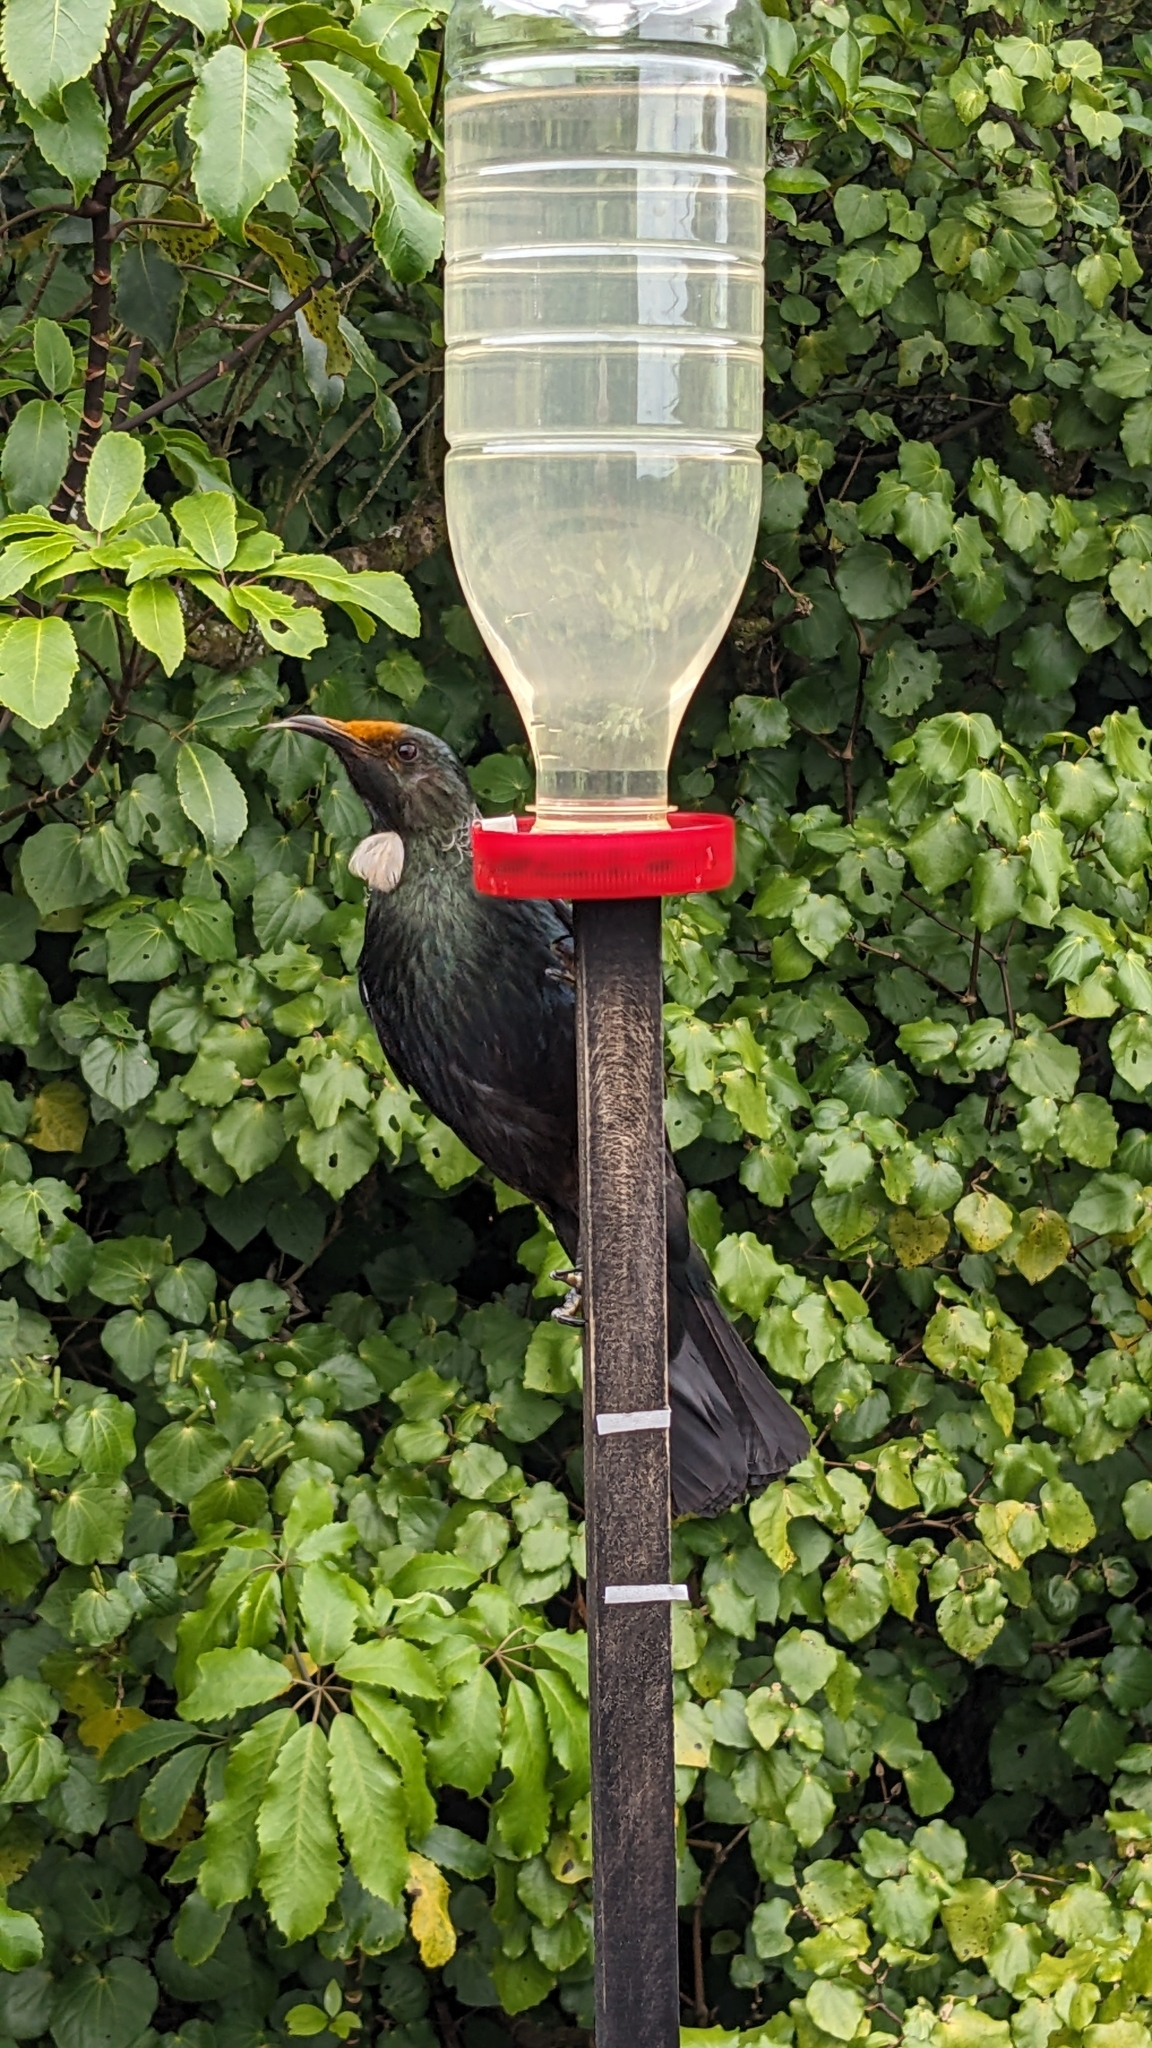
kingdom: Animalia
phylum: Chordata
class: Aves
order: Passeriformes
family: Meliphagidae
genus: Prosthemadera
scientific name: Prosthemadera novaeseelandiae
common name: Tui
